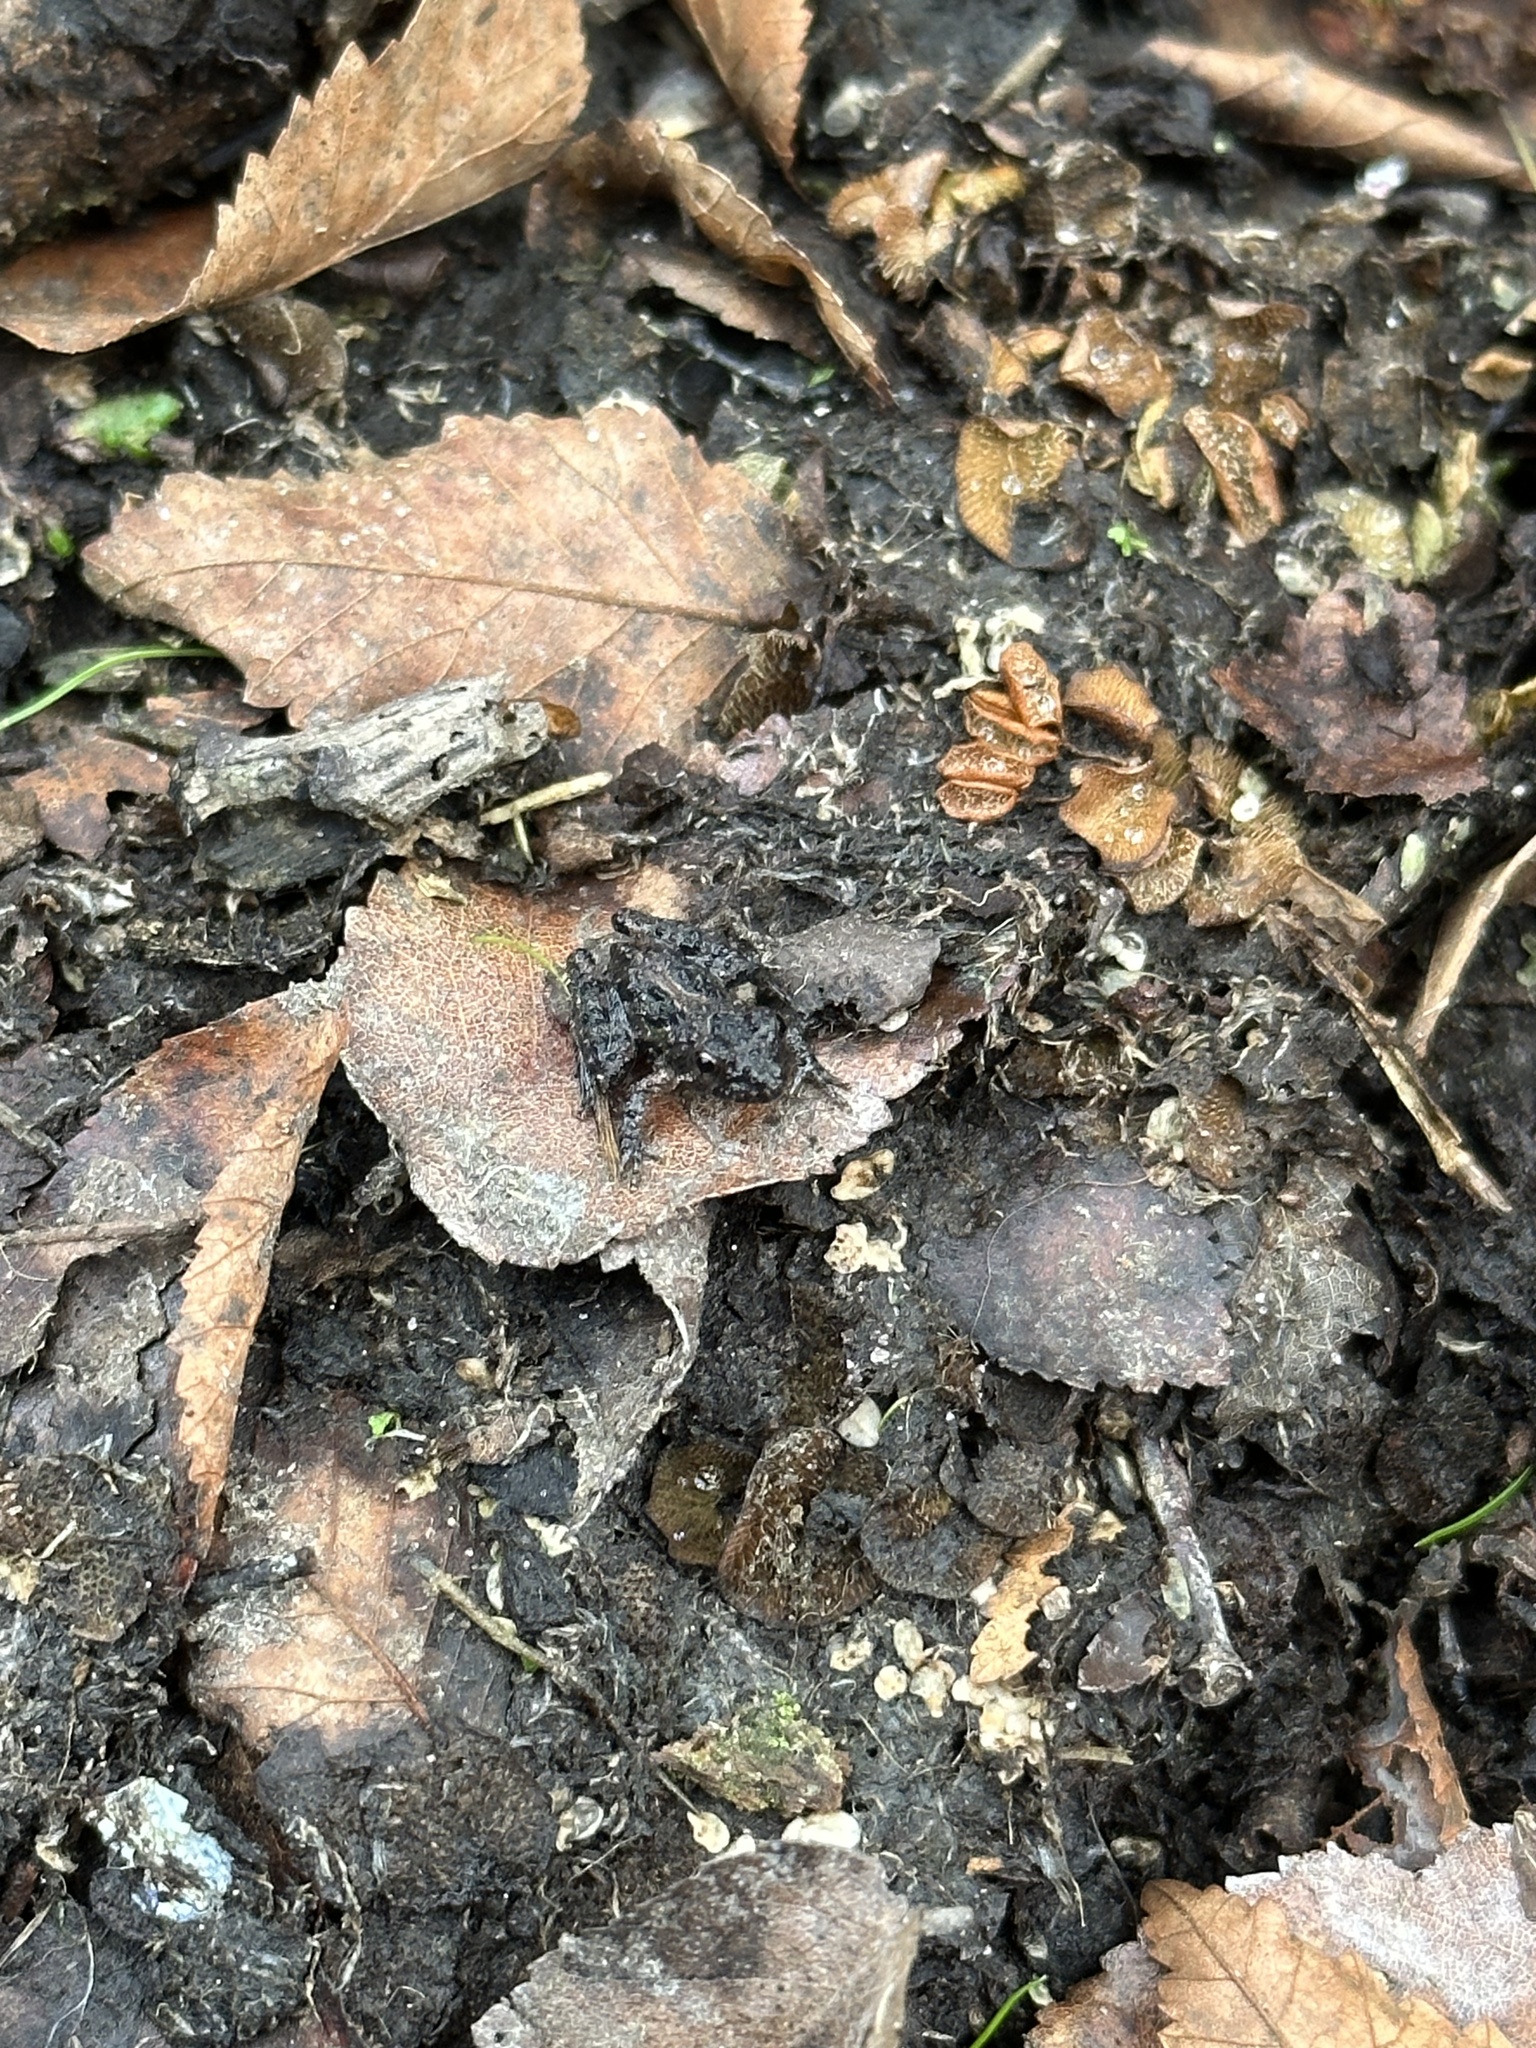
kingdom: Animalia
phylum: Chordata
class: Amphibia
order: Anura
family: Hylidae
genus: Acris
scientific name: Acris gryllus
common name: Southern cricket frog
